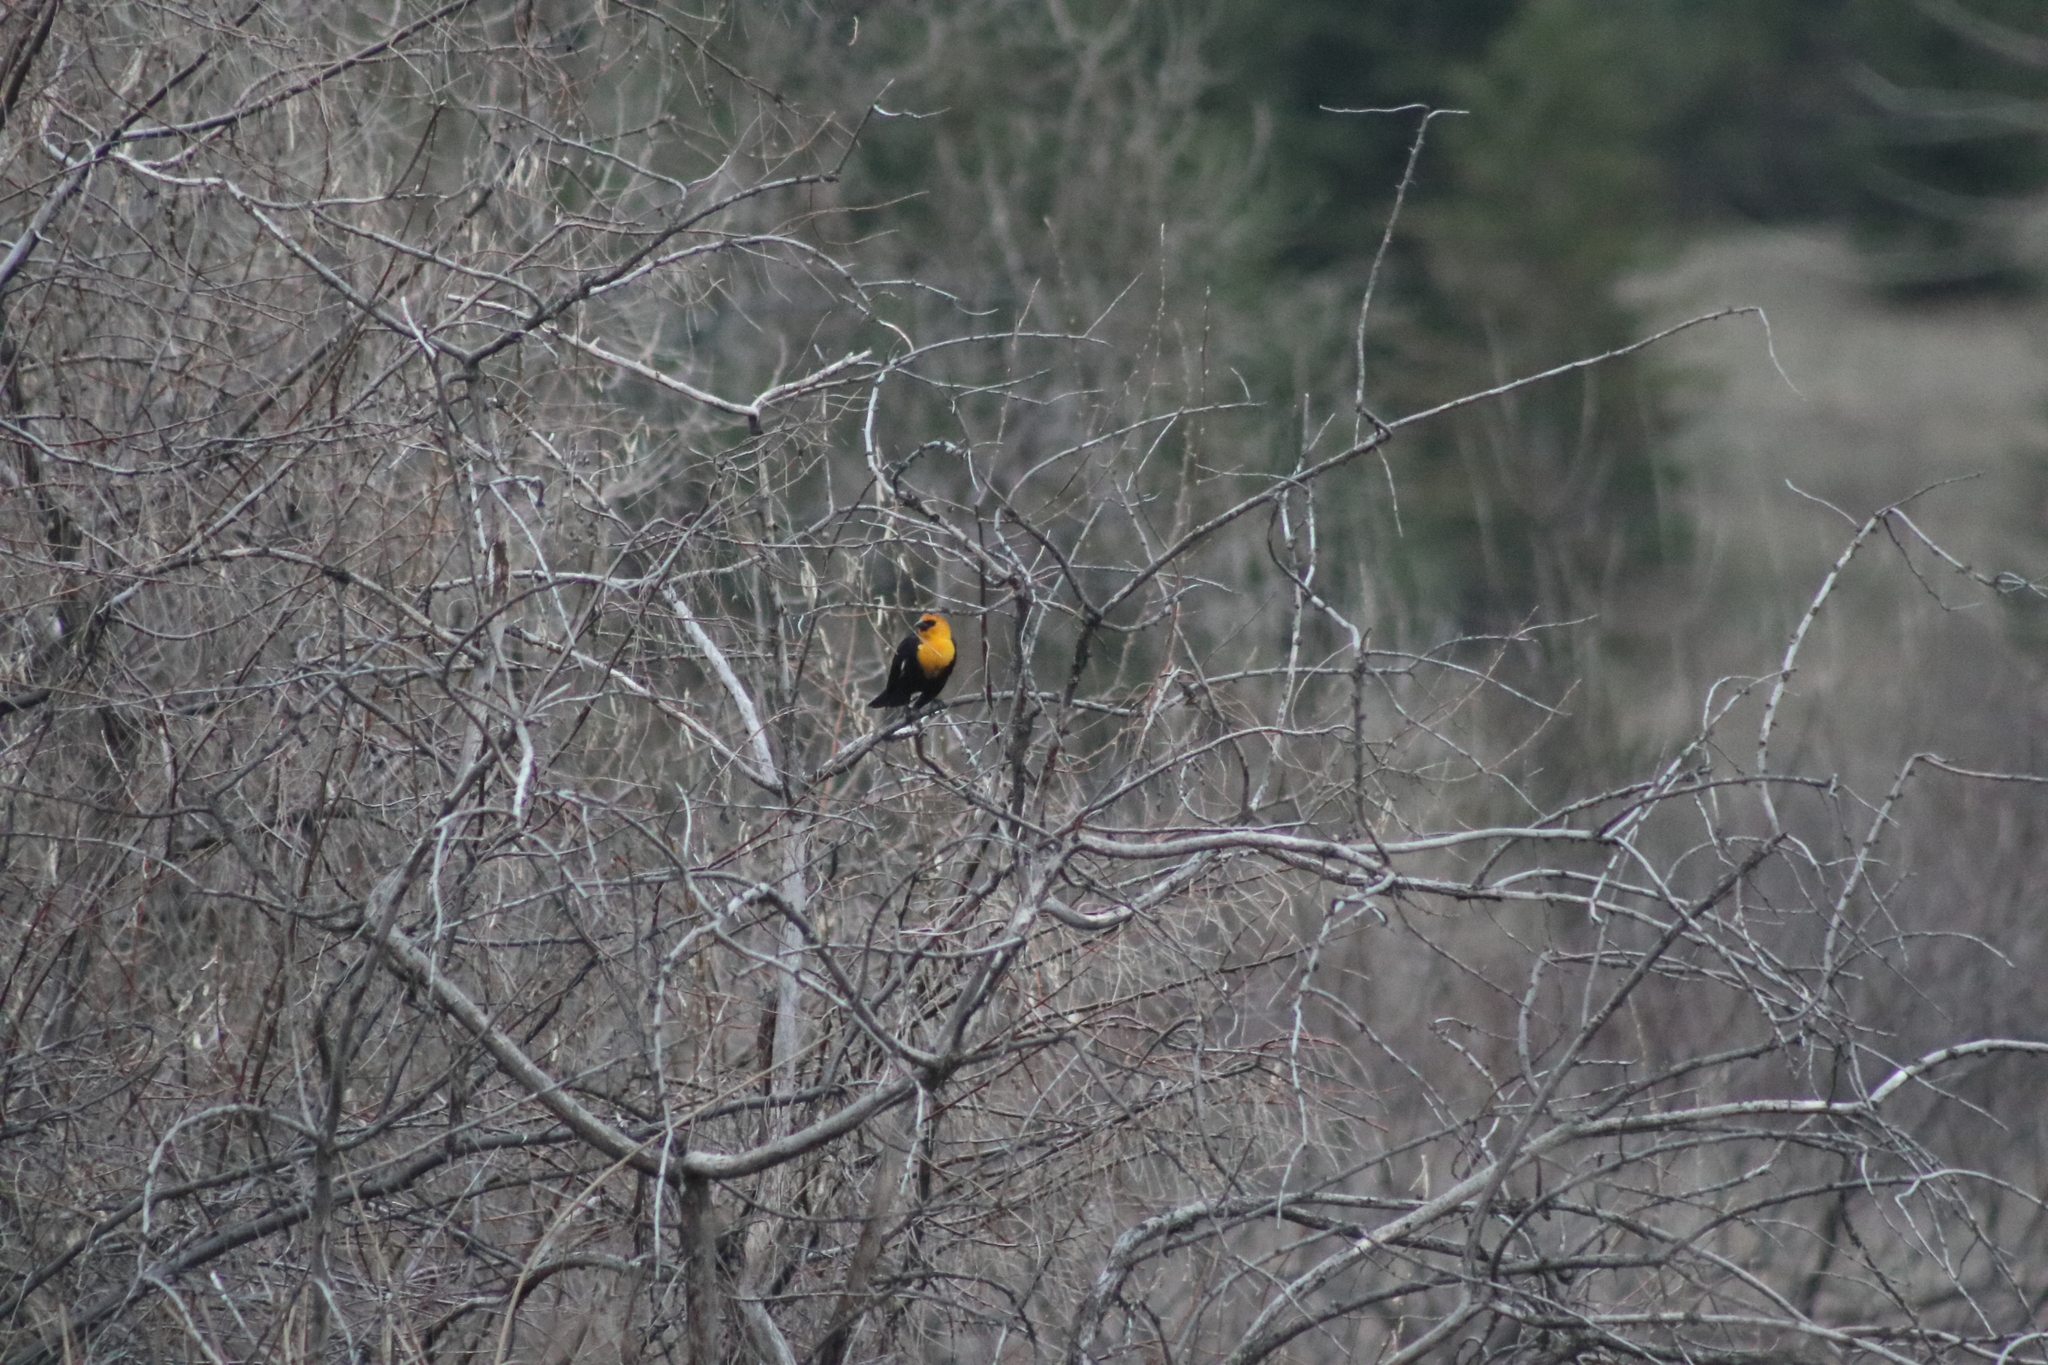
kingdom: Animalia
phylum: Chordata
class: Aves
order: Passeriformes
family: Icteridae
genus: Xanthocephalus
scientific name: Xanthocephalus xanthocephalus
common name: Yellow-headed blackbird
